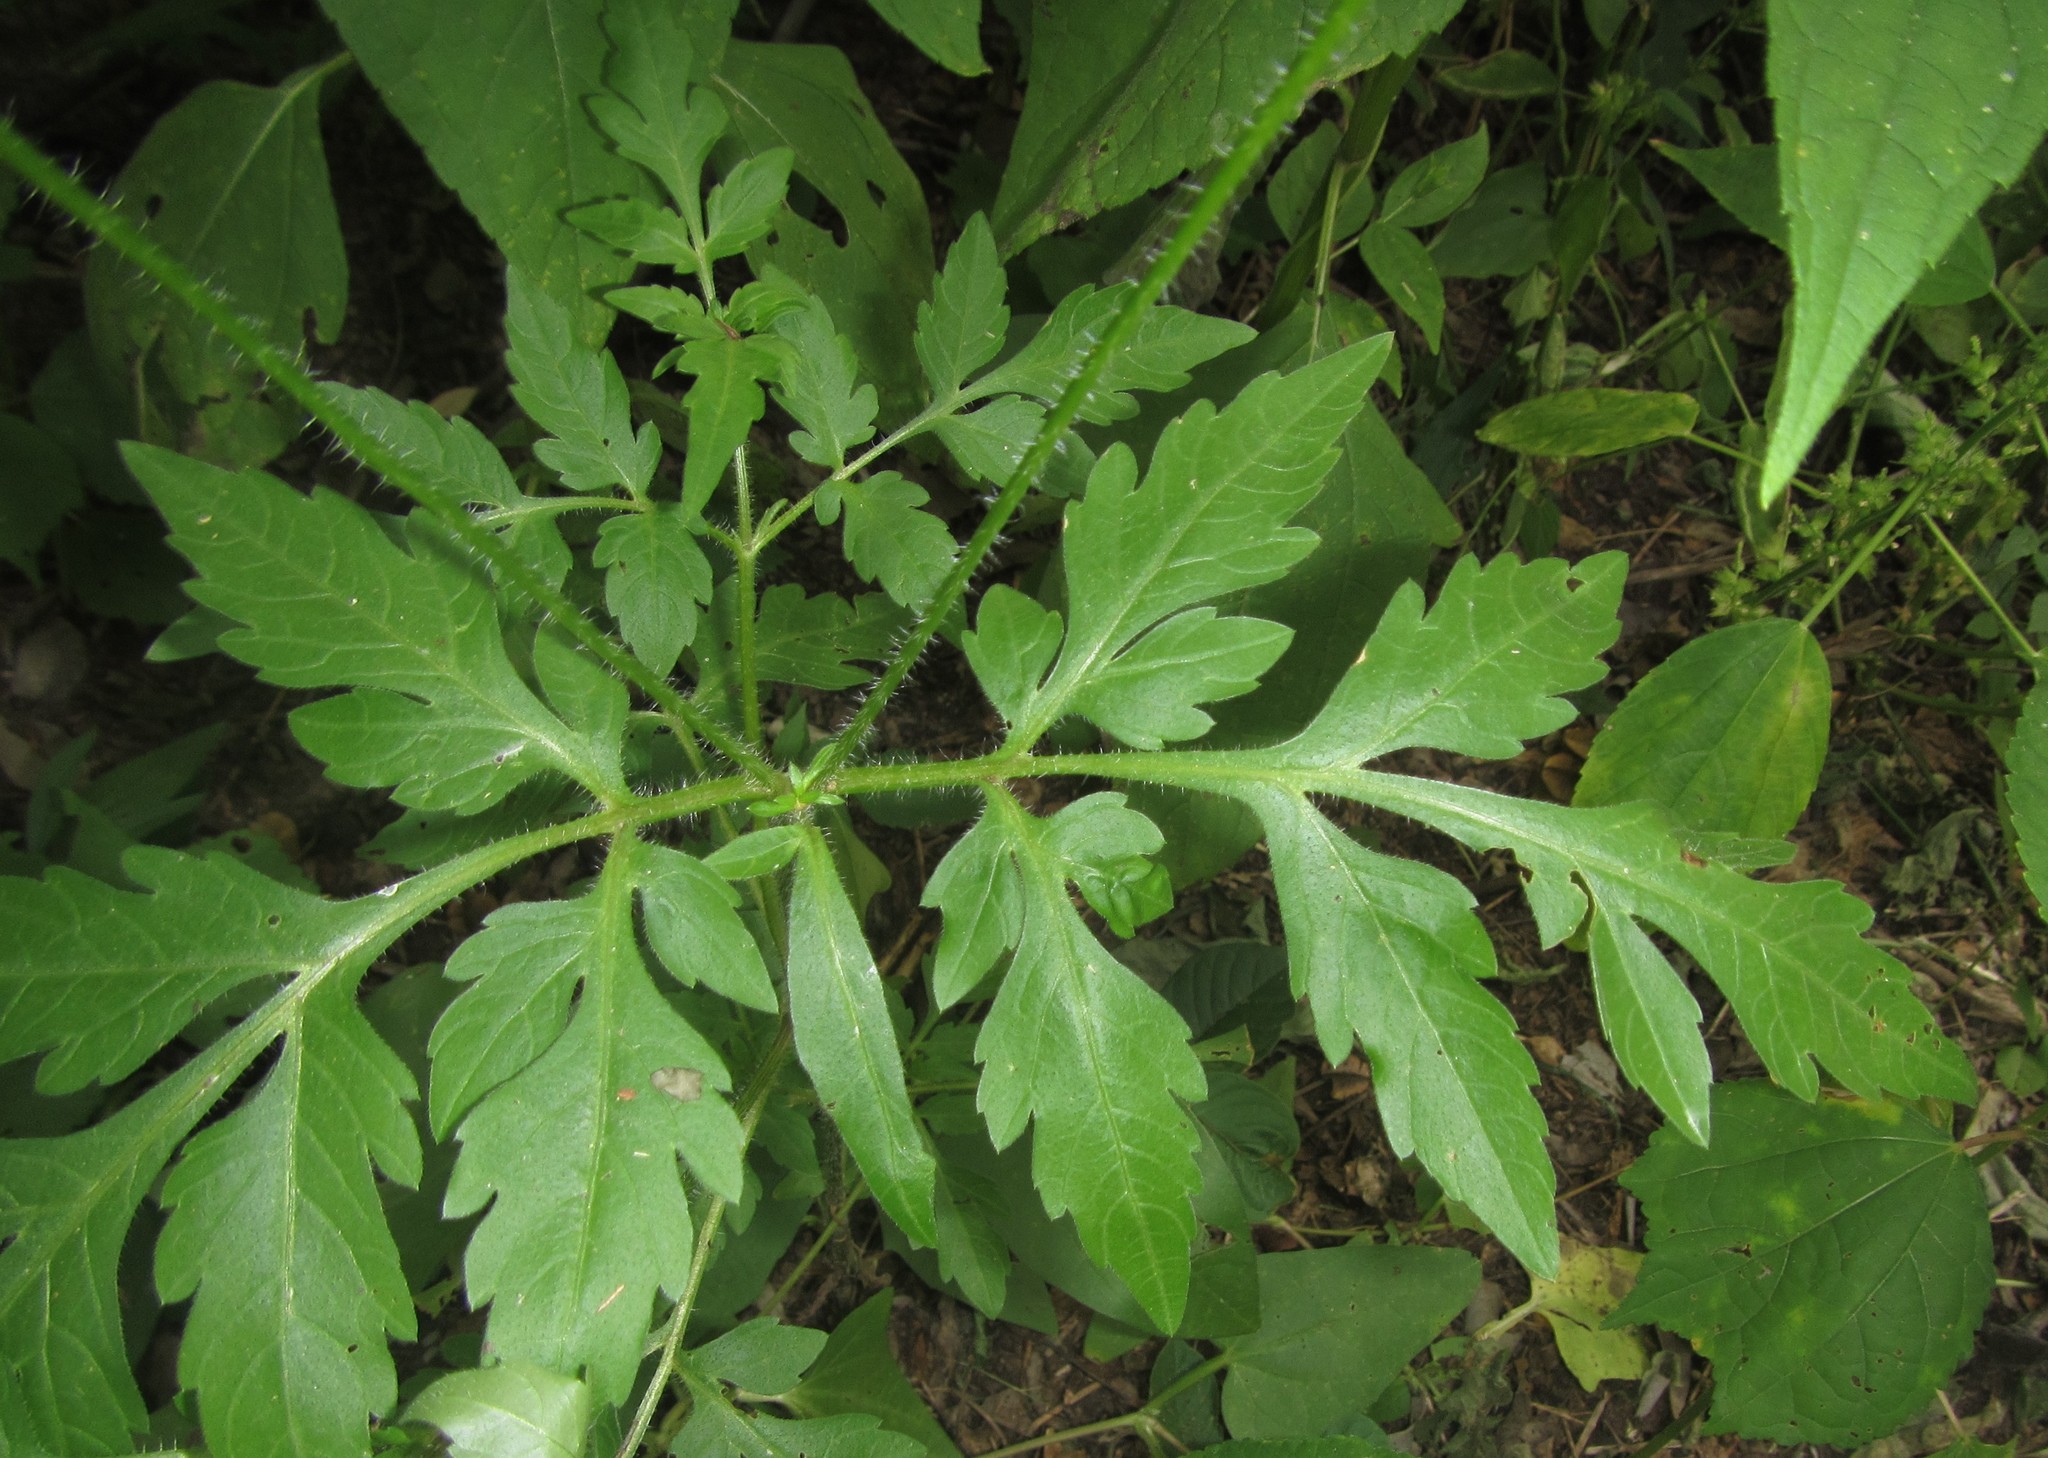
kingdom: Plantae
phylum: Tracheophyta
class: Magnoliopsida
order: Asterales
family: Asteraceae
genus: Bidens
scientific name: Bidens schimperi
